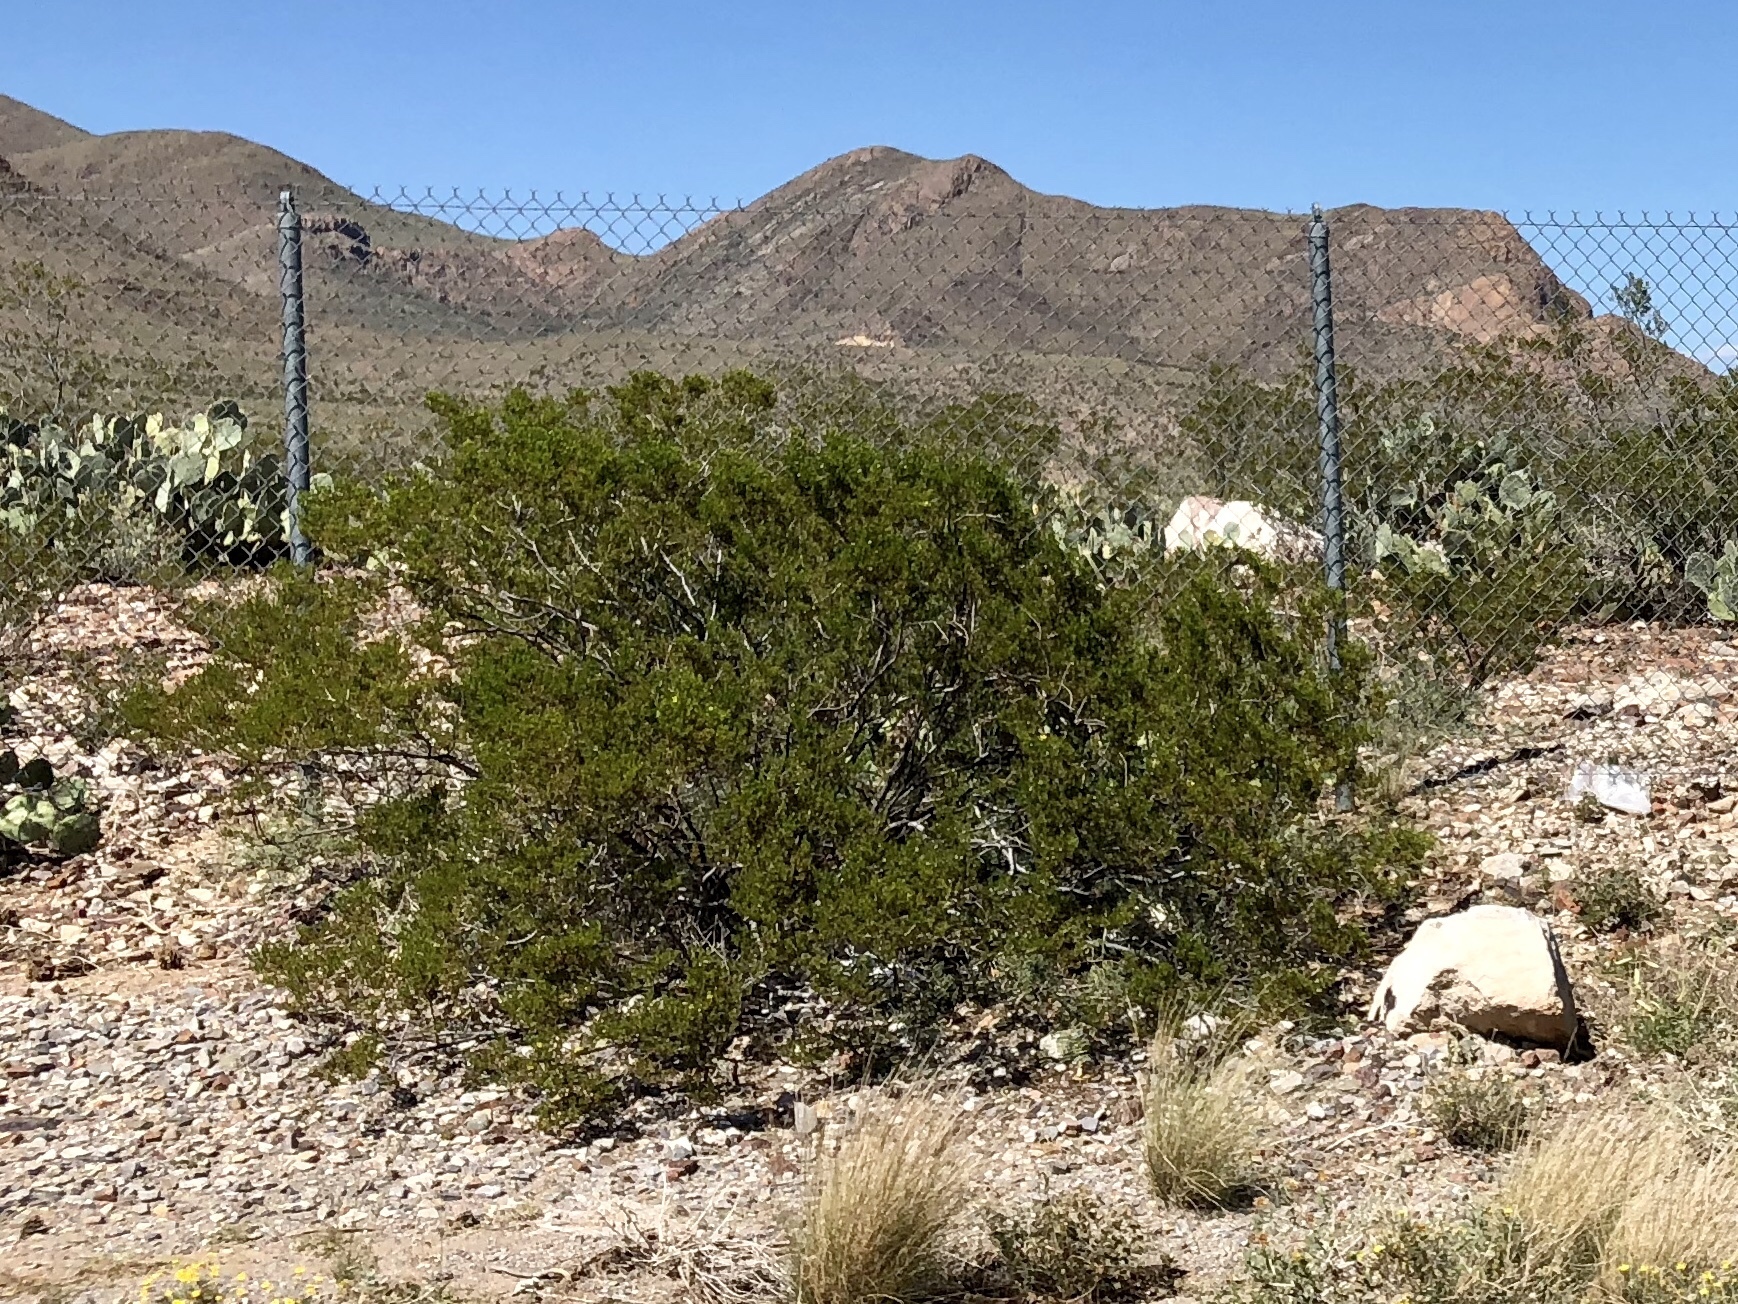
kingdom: Plantae
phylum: Tracheophyta
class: Magnoliopsida
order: Zygophyllales
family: Zygophyllaceae
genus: Larrea
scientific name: Larrea tridentata
